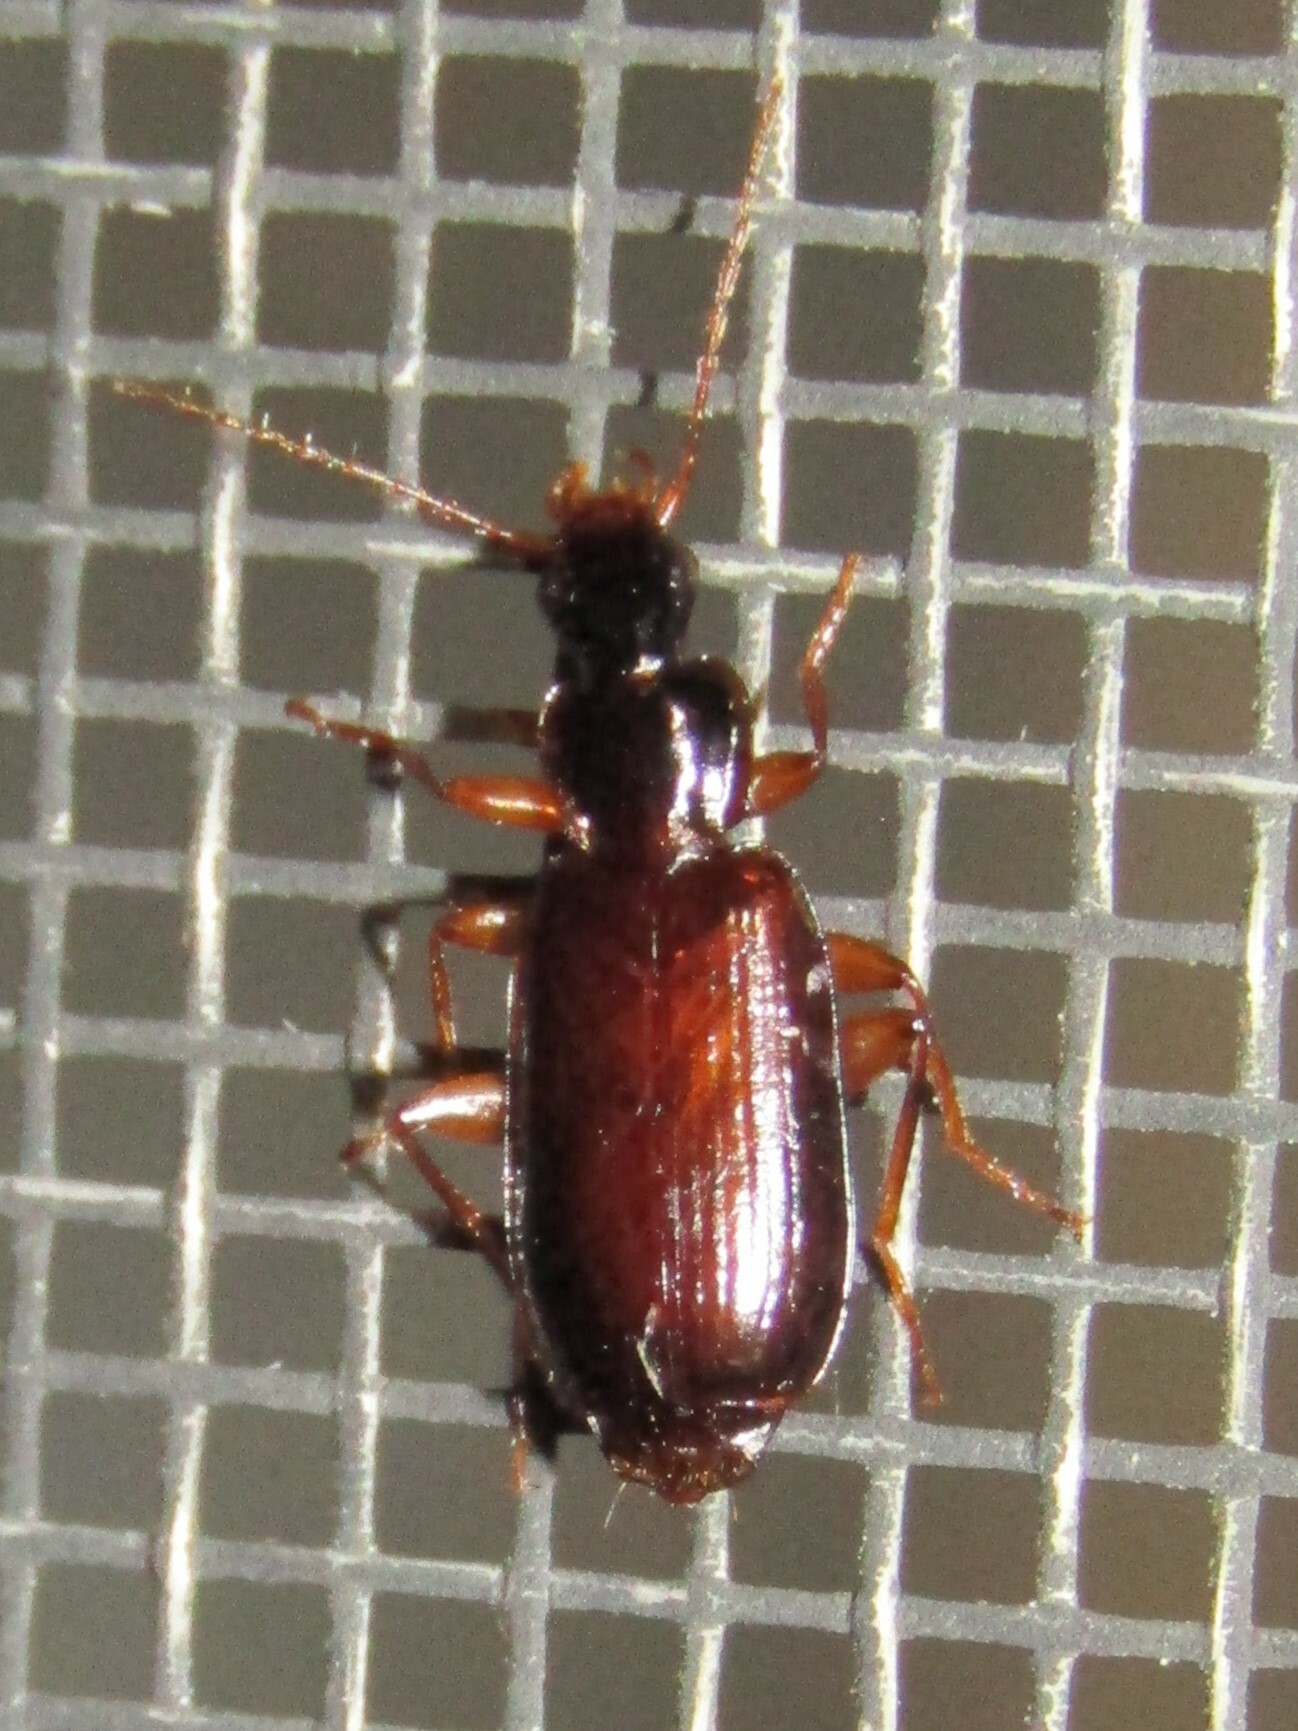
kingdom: Animalia
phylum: Arthropoda
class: Insecta
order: Coleoptera
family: Carabidae
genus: Dromius
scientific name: Dromius piceus
